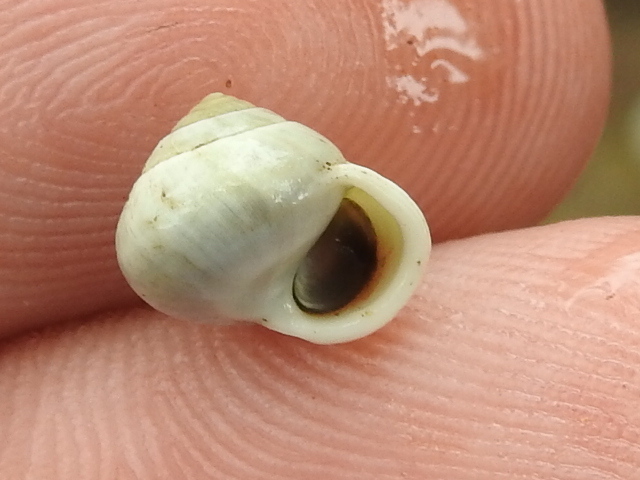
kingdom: Animalia
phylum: Mollusca
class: Gastropoda
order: Cycloneritida
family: Helicinidae
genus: Helicina
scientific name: Helicina orbiculata
